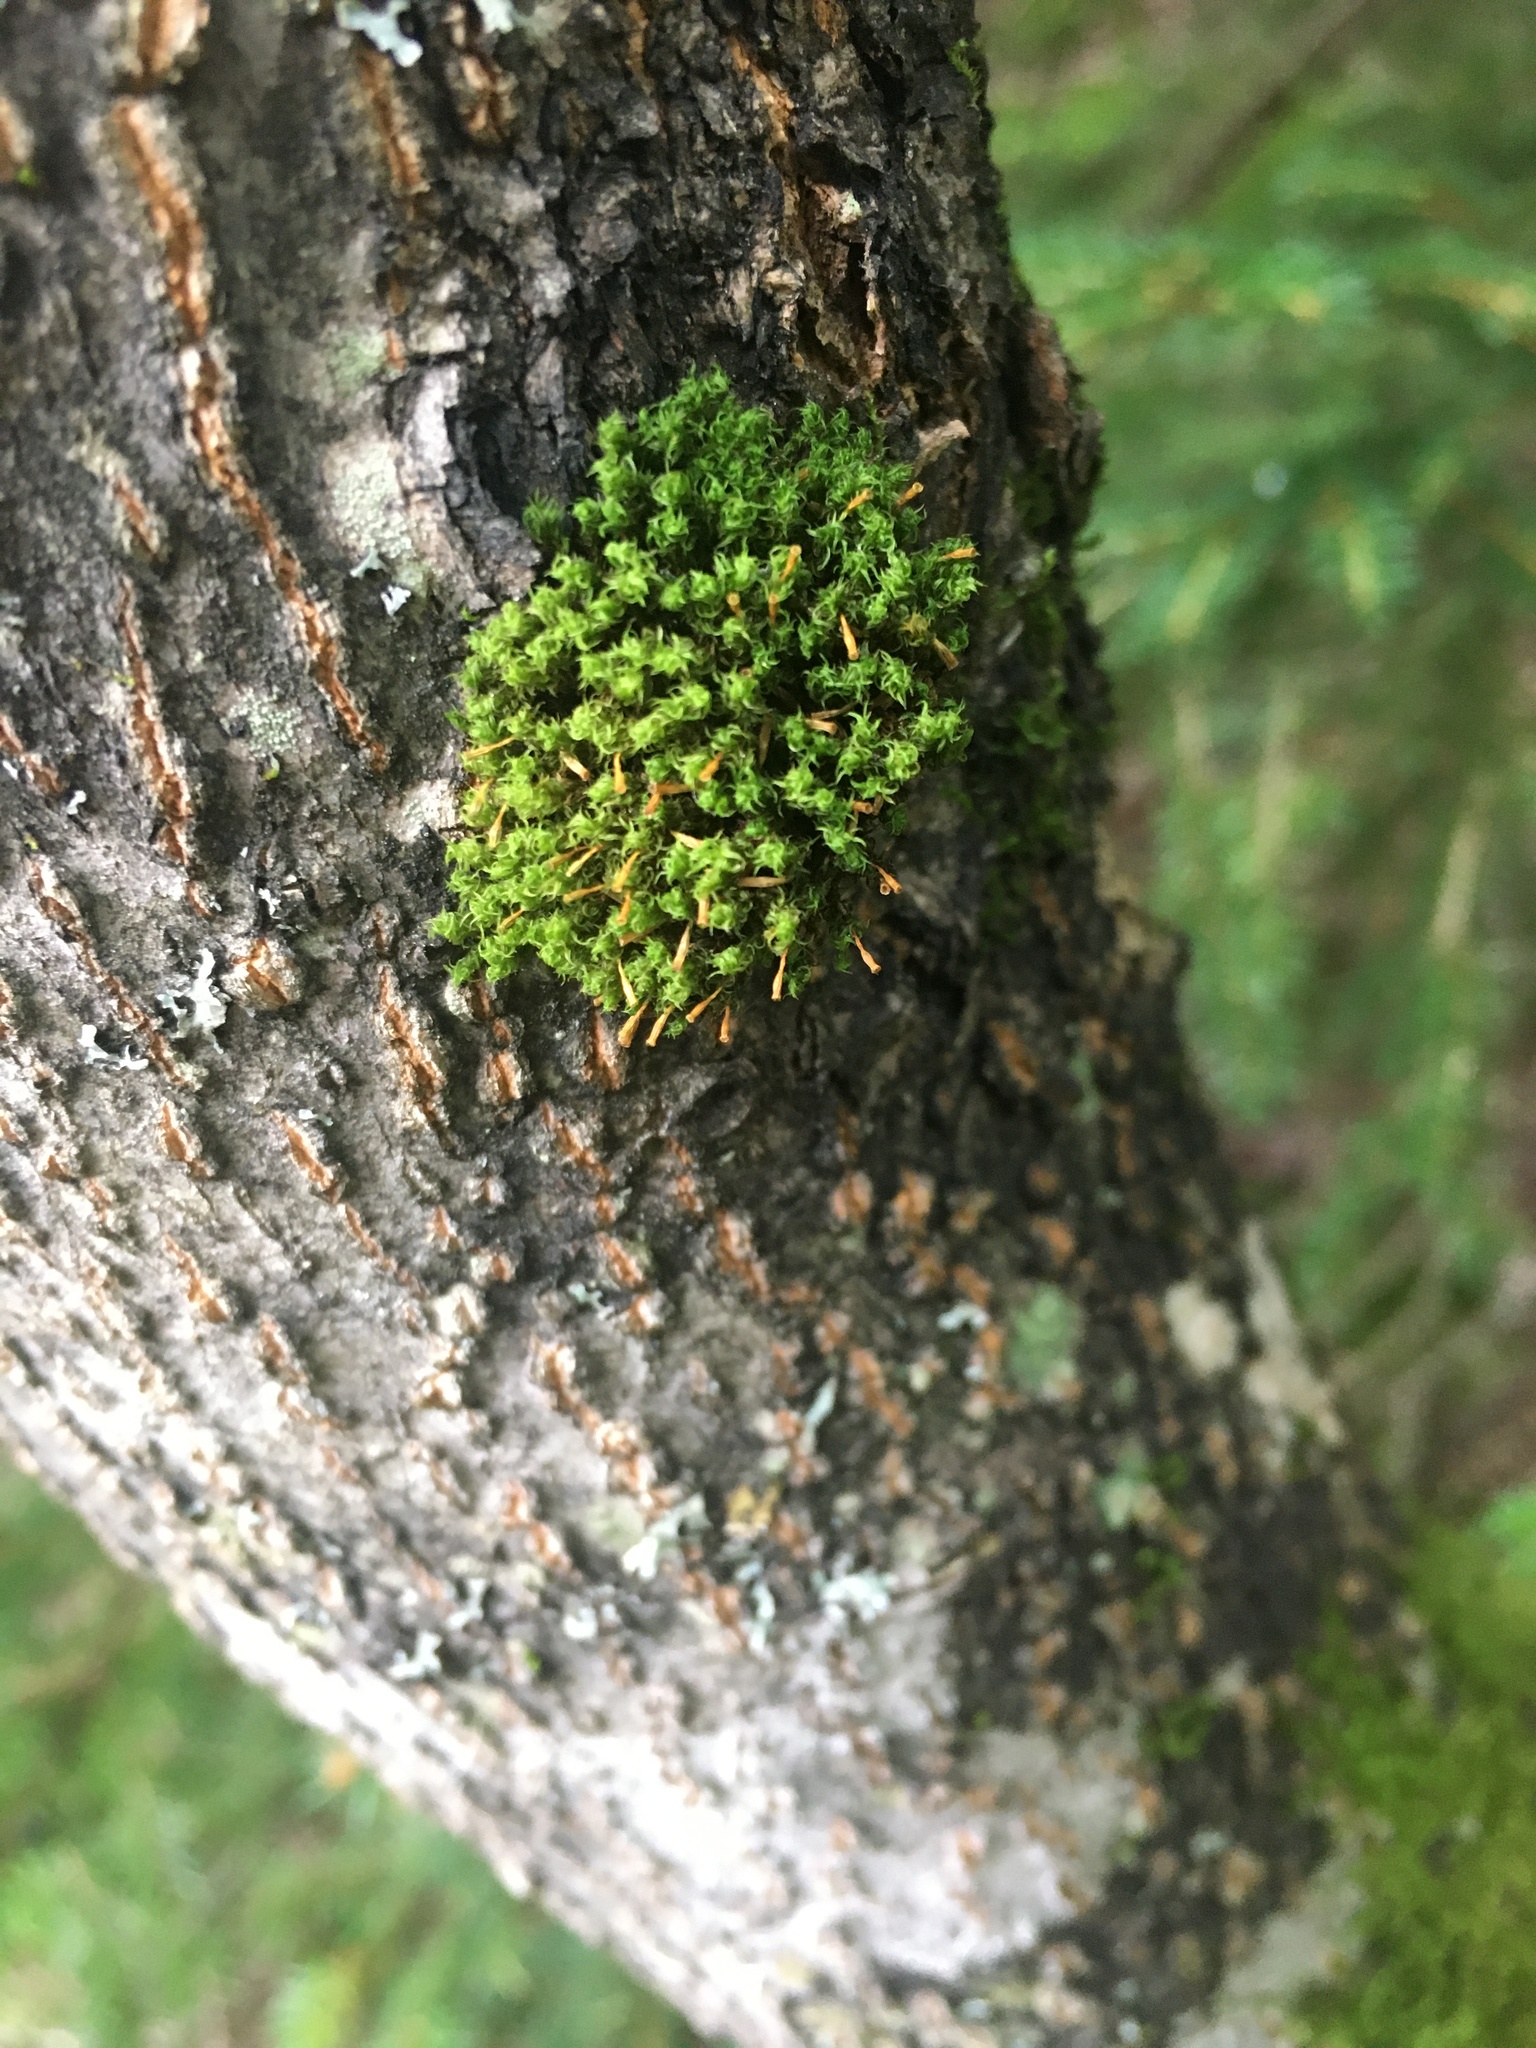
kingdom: Plantae
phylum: Bryophyta
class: Bryopsida
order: Orthotrichales
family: Orthotrichaceae
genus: Ulota
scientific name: Ulota crispa
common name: Crisped pincushion moss
